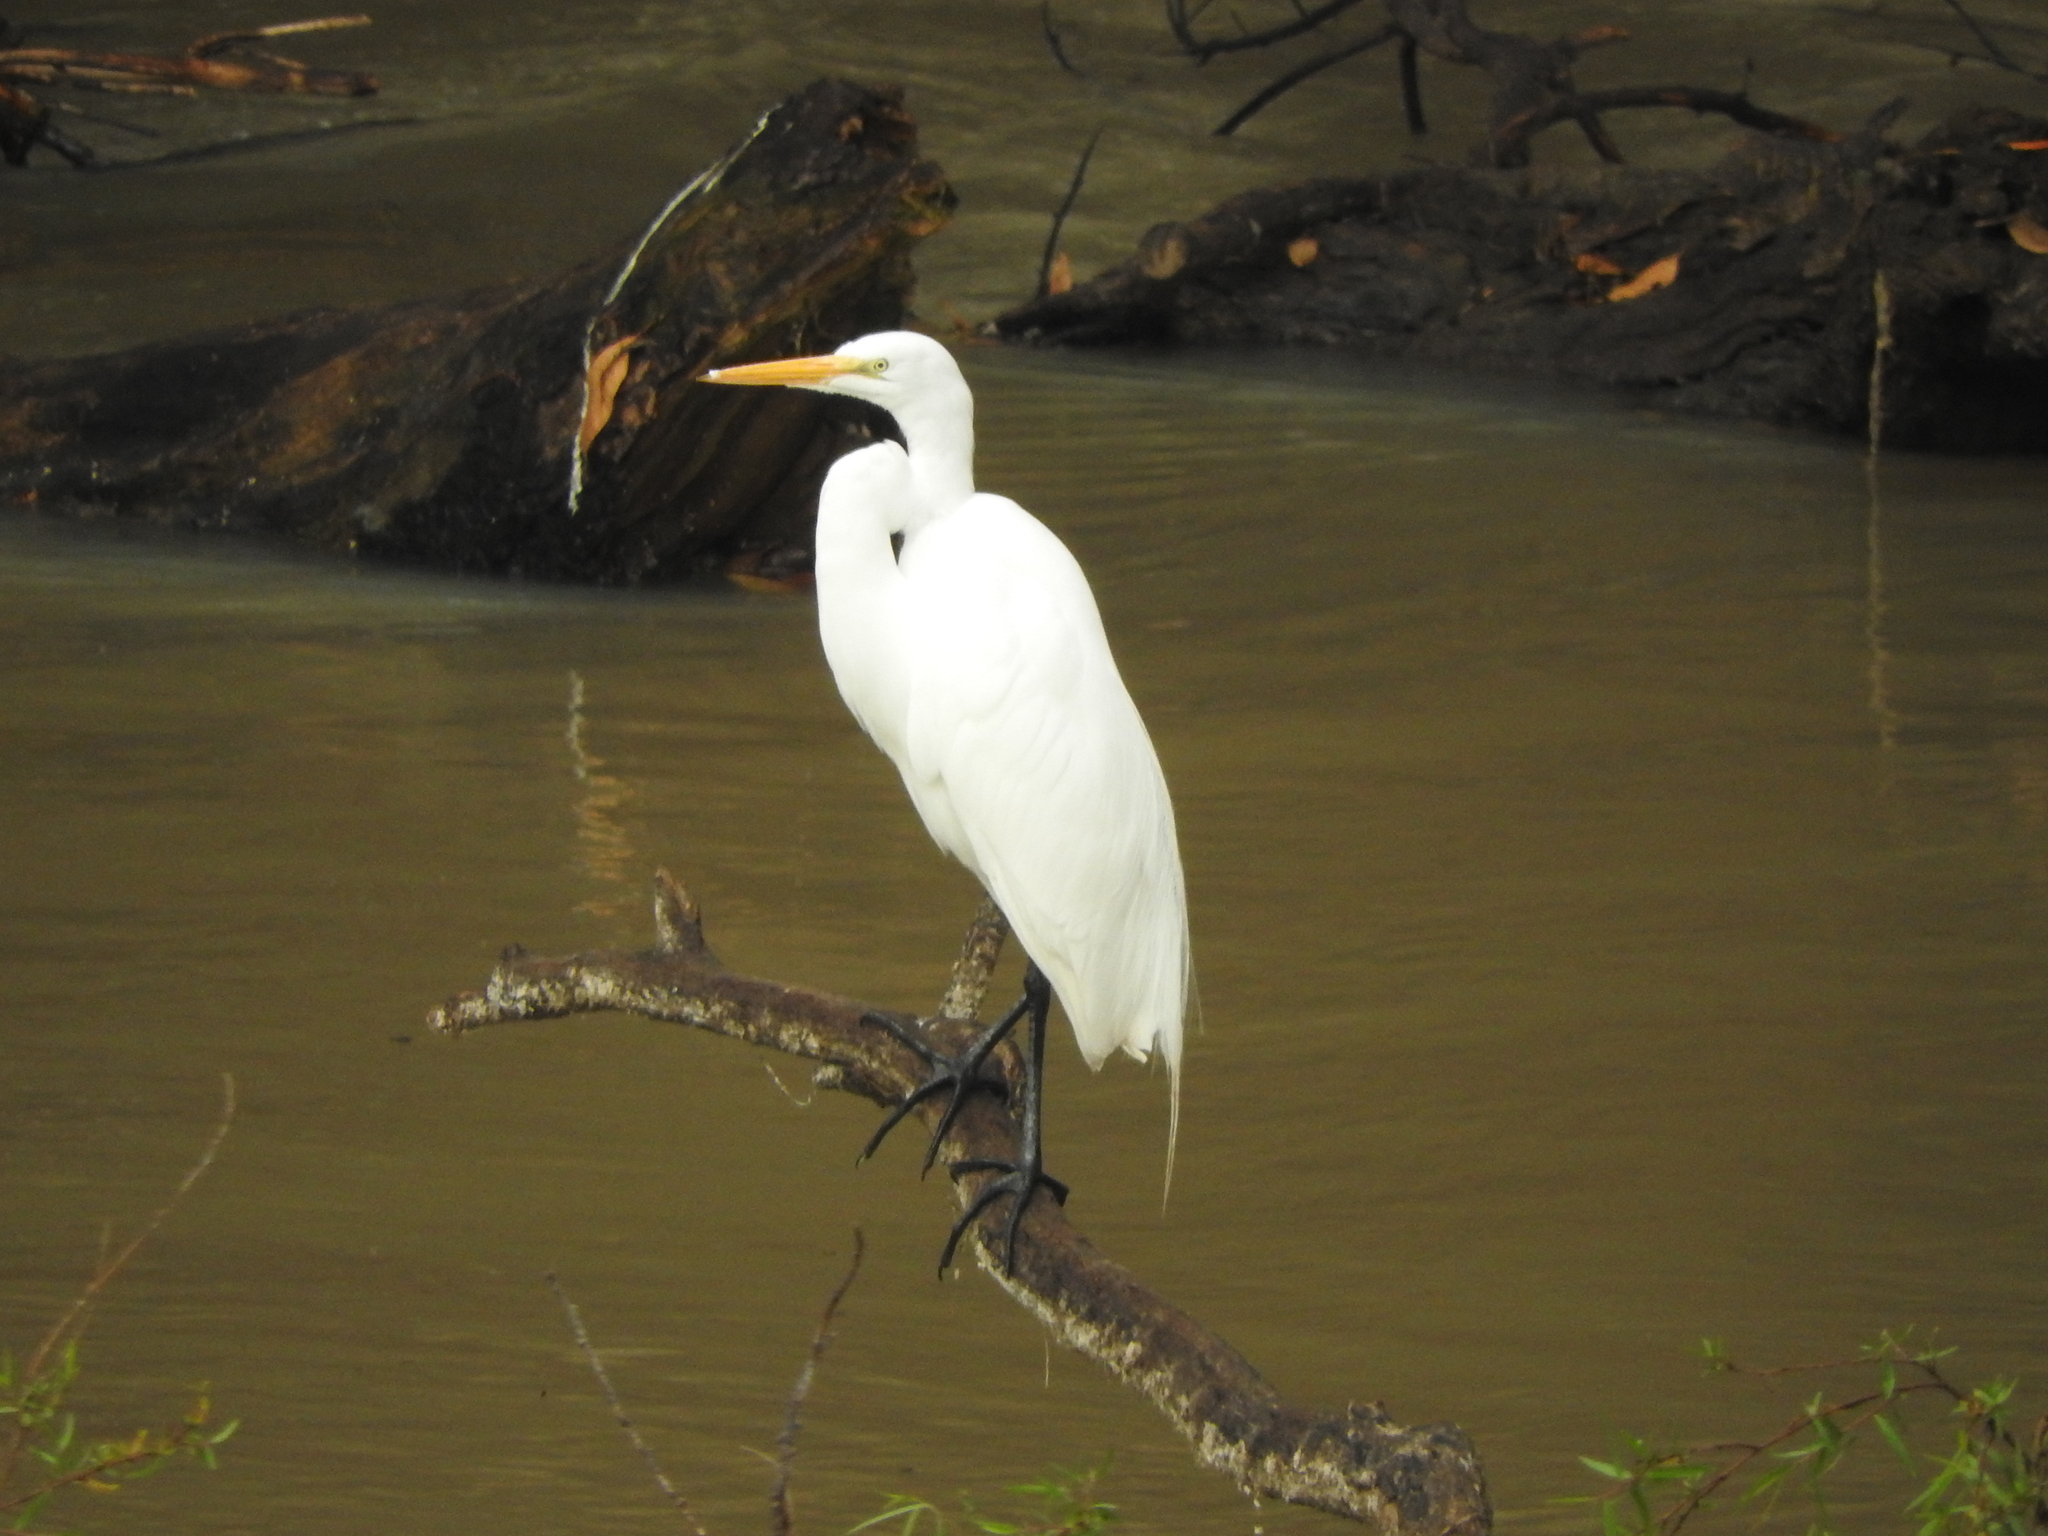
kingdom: Animalia
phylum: Chordata
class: Aves
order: Pelecaniformes
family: Ardeidae
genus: Ardea
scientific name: Ardea alba
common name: Great egret
